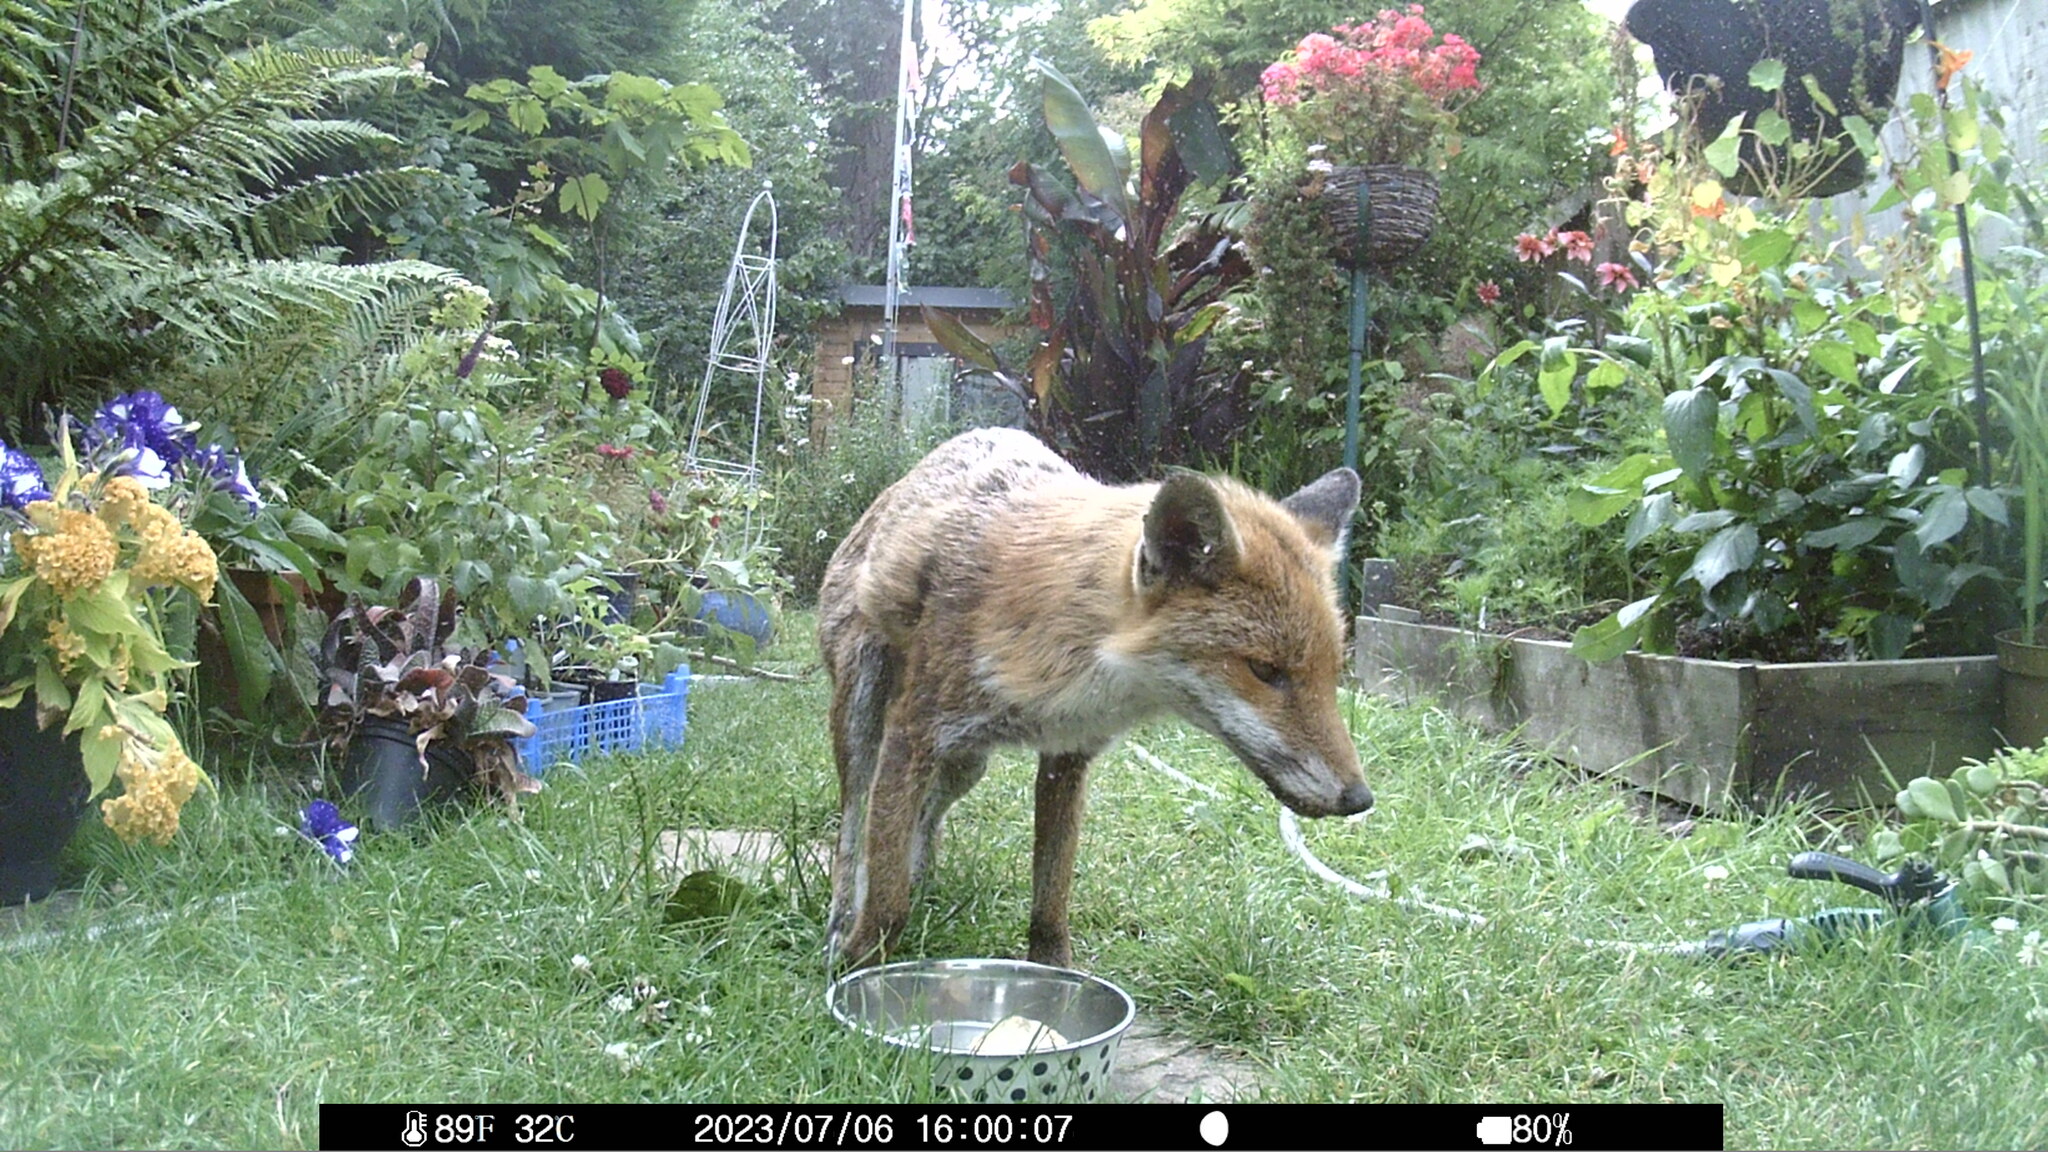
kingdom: Animalia
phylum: Chordata
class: Mammalia
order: Carnivora
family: Canidae
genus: Vulpes
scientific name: Vulpes vulpes
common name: Red fox
